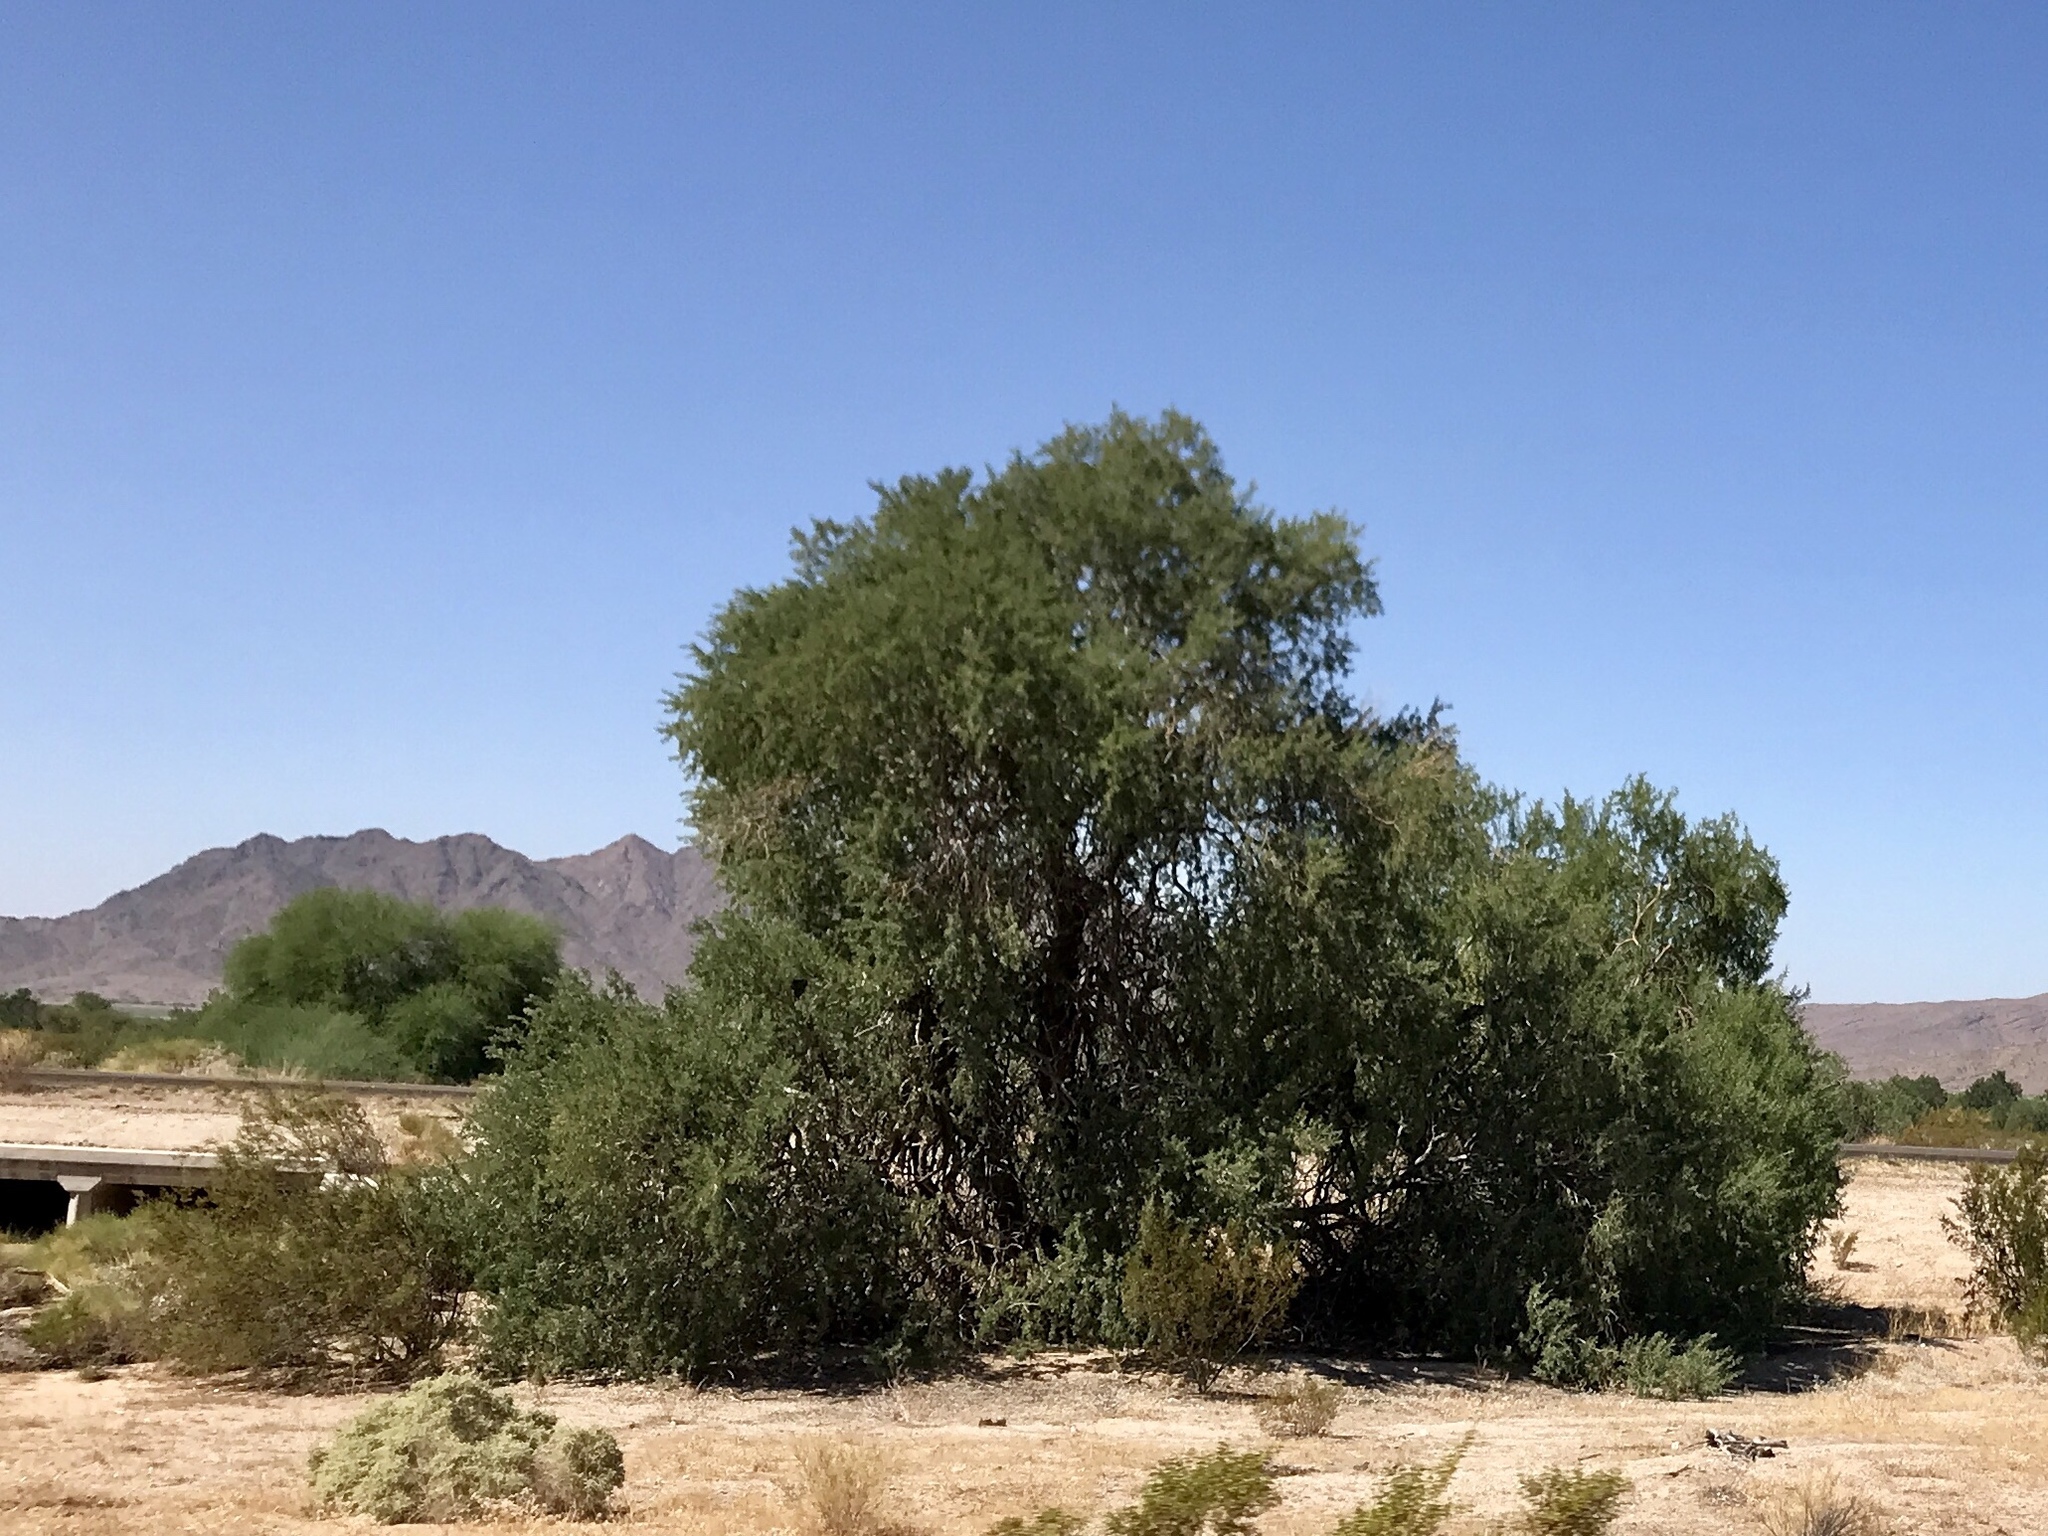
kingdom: Plantae
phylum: Tracheophyta
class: Magnoliopsida
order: Fabales
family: Fabaceae
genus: Prosopis
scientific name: Prosopis velutina
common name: Velvet mesquite
